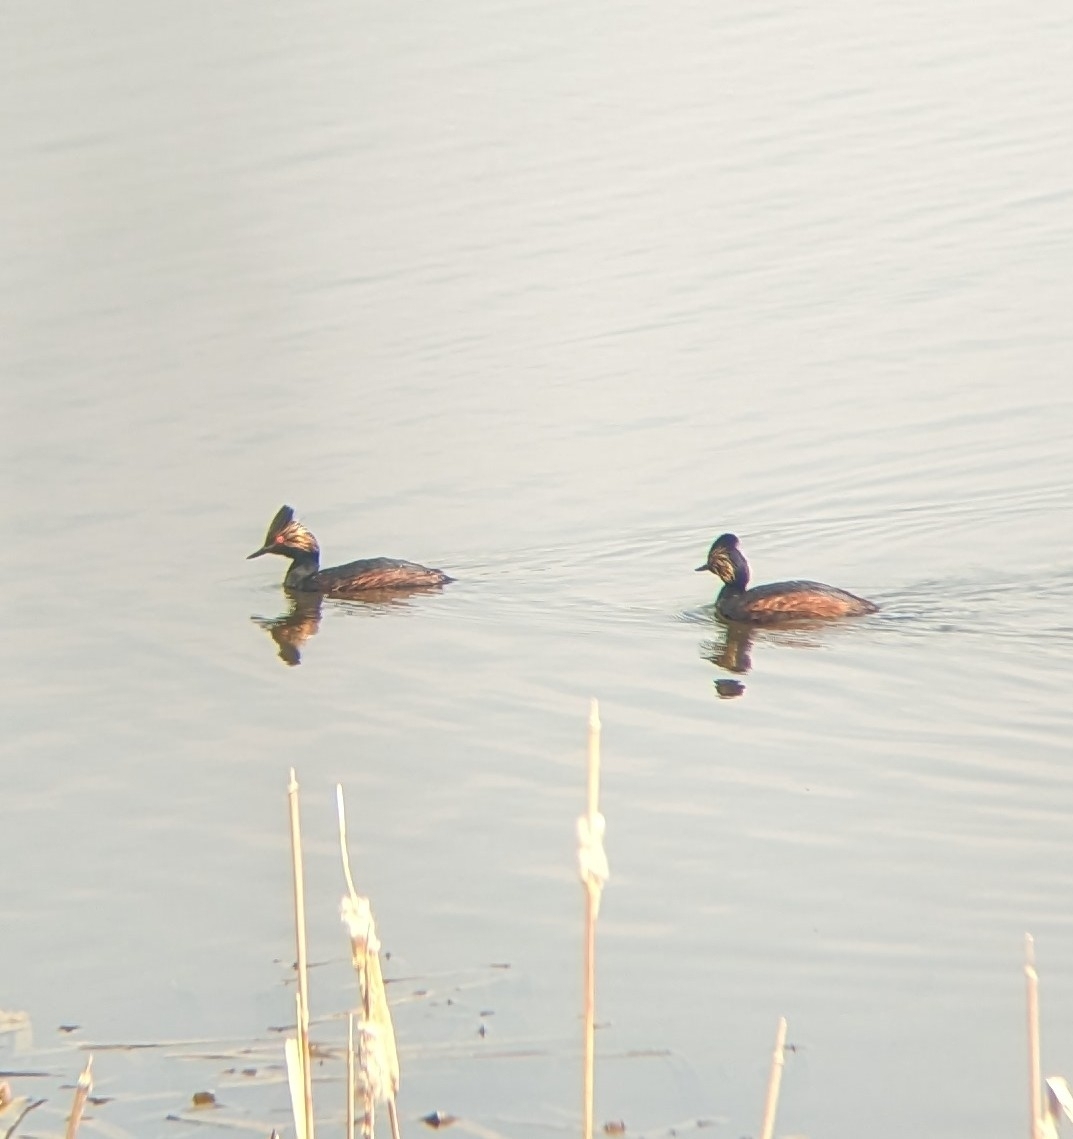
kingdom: Animalia
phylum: Chordata
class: Aves
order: Podicipediformes
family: Podicipedidae
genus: Podiceps
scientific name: Podiceps nigricollis
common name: Black-necked grebe
